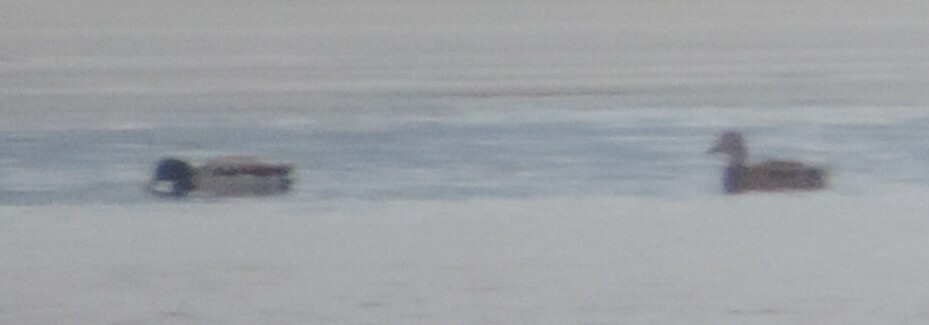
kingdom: Animalia
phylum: Chordata
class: Aves
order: Anseriformes
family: Anatidae
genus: Anas
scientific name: Anas platyrhynchos
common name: Mallard
